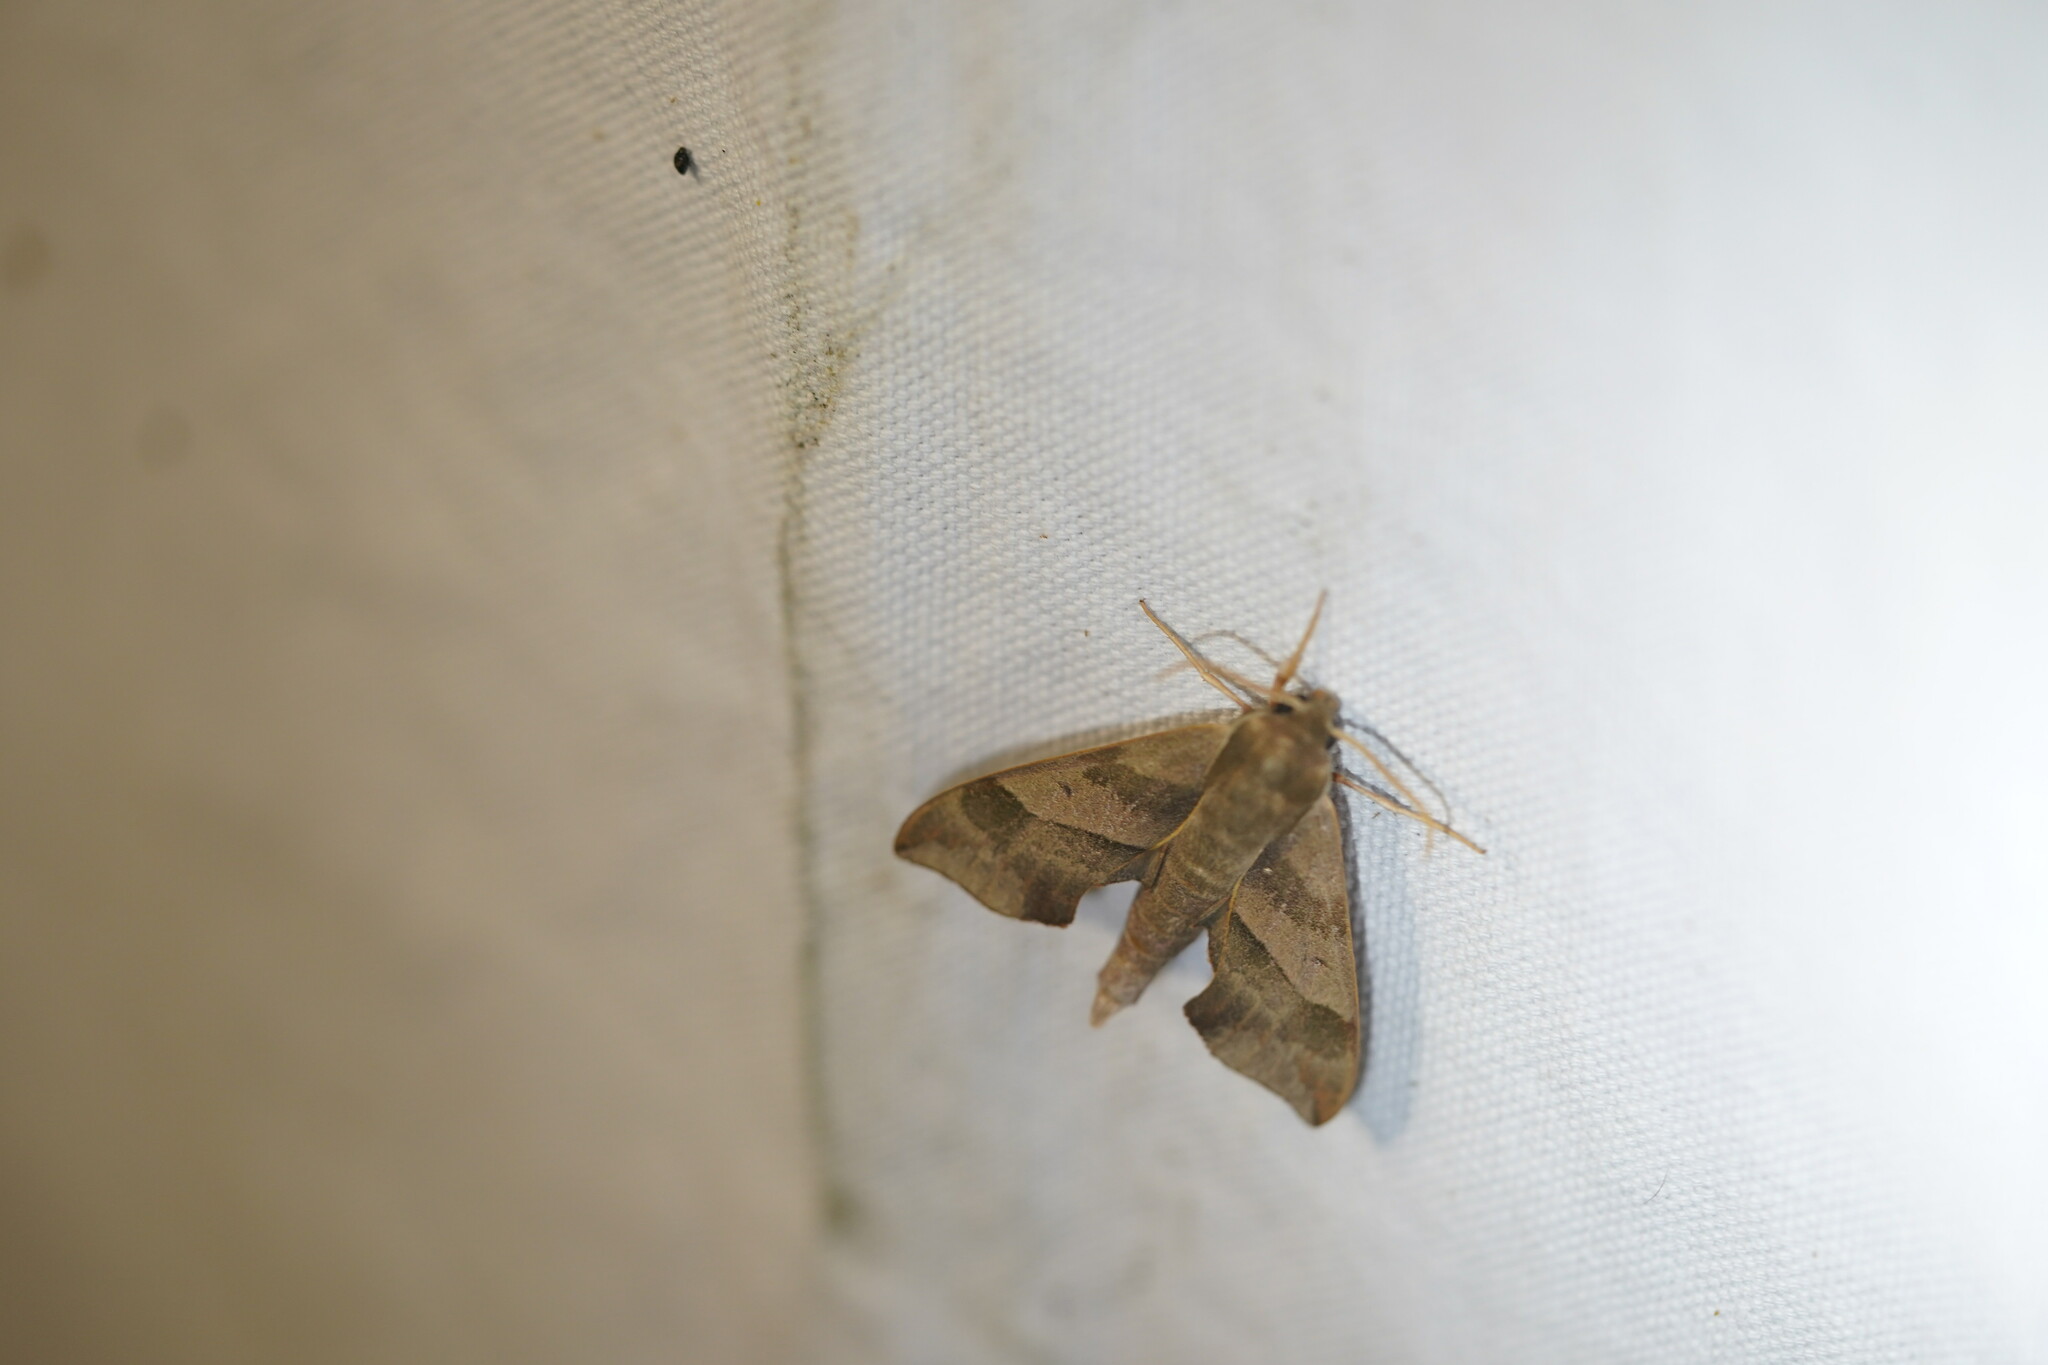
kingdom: Animalia
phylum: Arthropoda
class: Insecta
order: Lepidoptera
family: Sphingidae
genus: Darapsa
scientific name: Darapsa myron
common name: Hog sphinx
